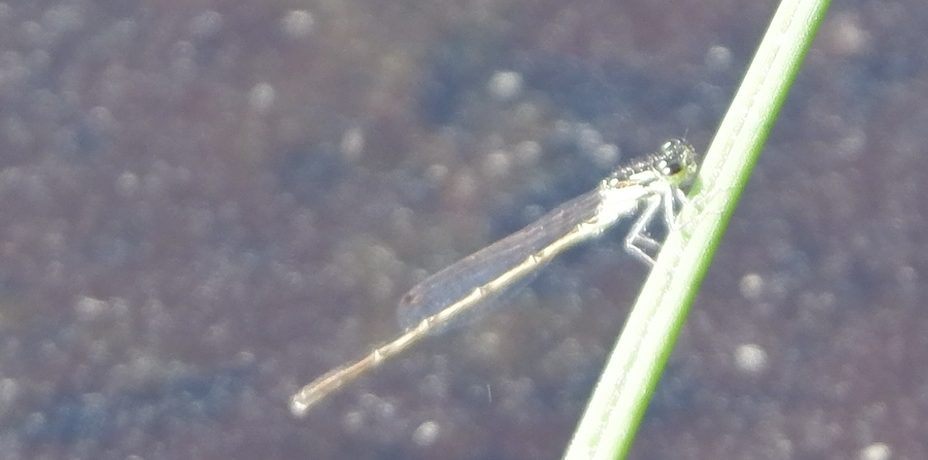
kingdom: Animalia
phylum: Arthropoda
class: Insecta
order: Odonata
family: Coenagrionidae
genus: Ischnura
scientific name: Ischnura posita
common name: Fragile forktail
